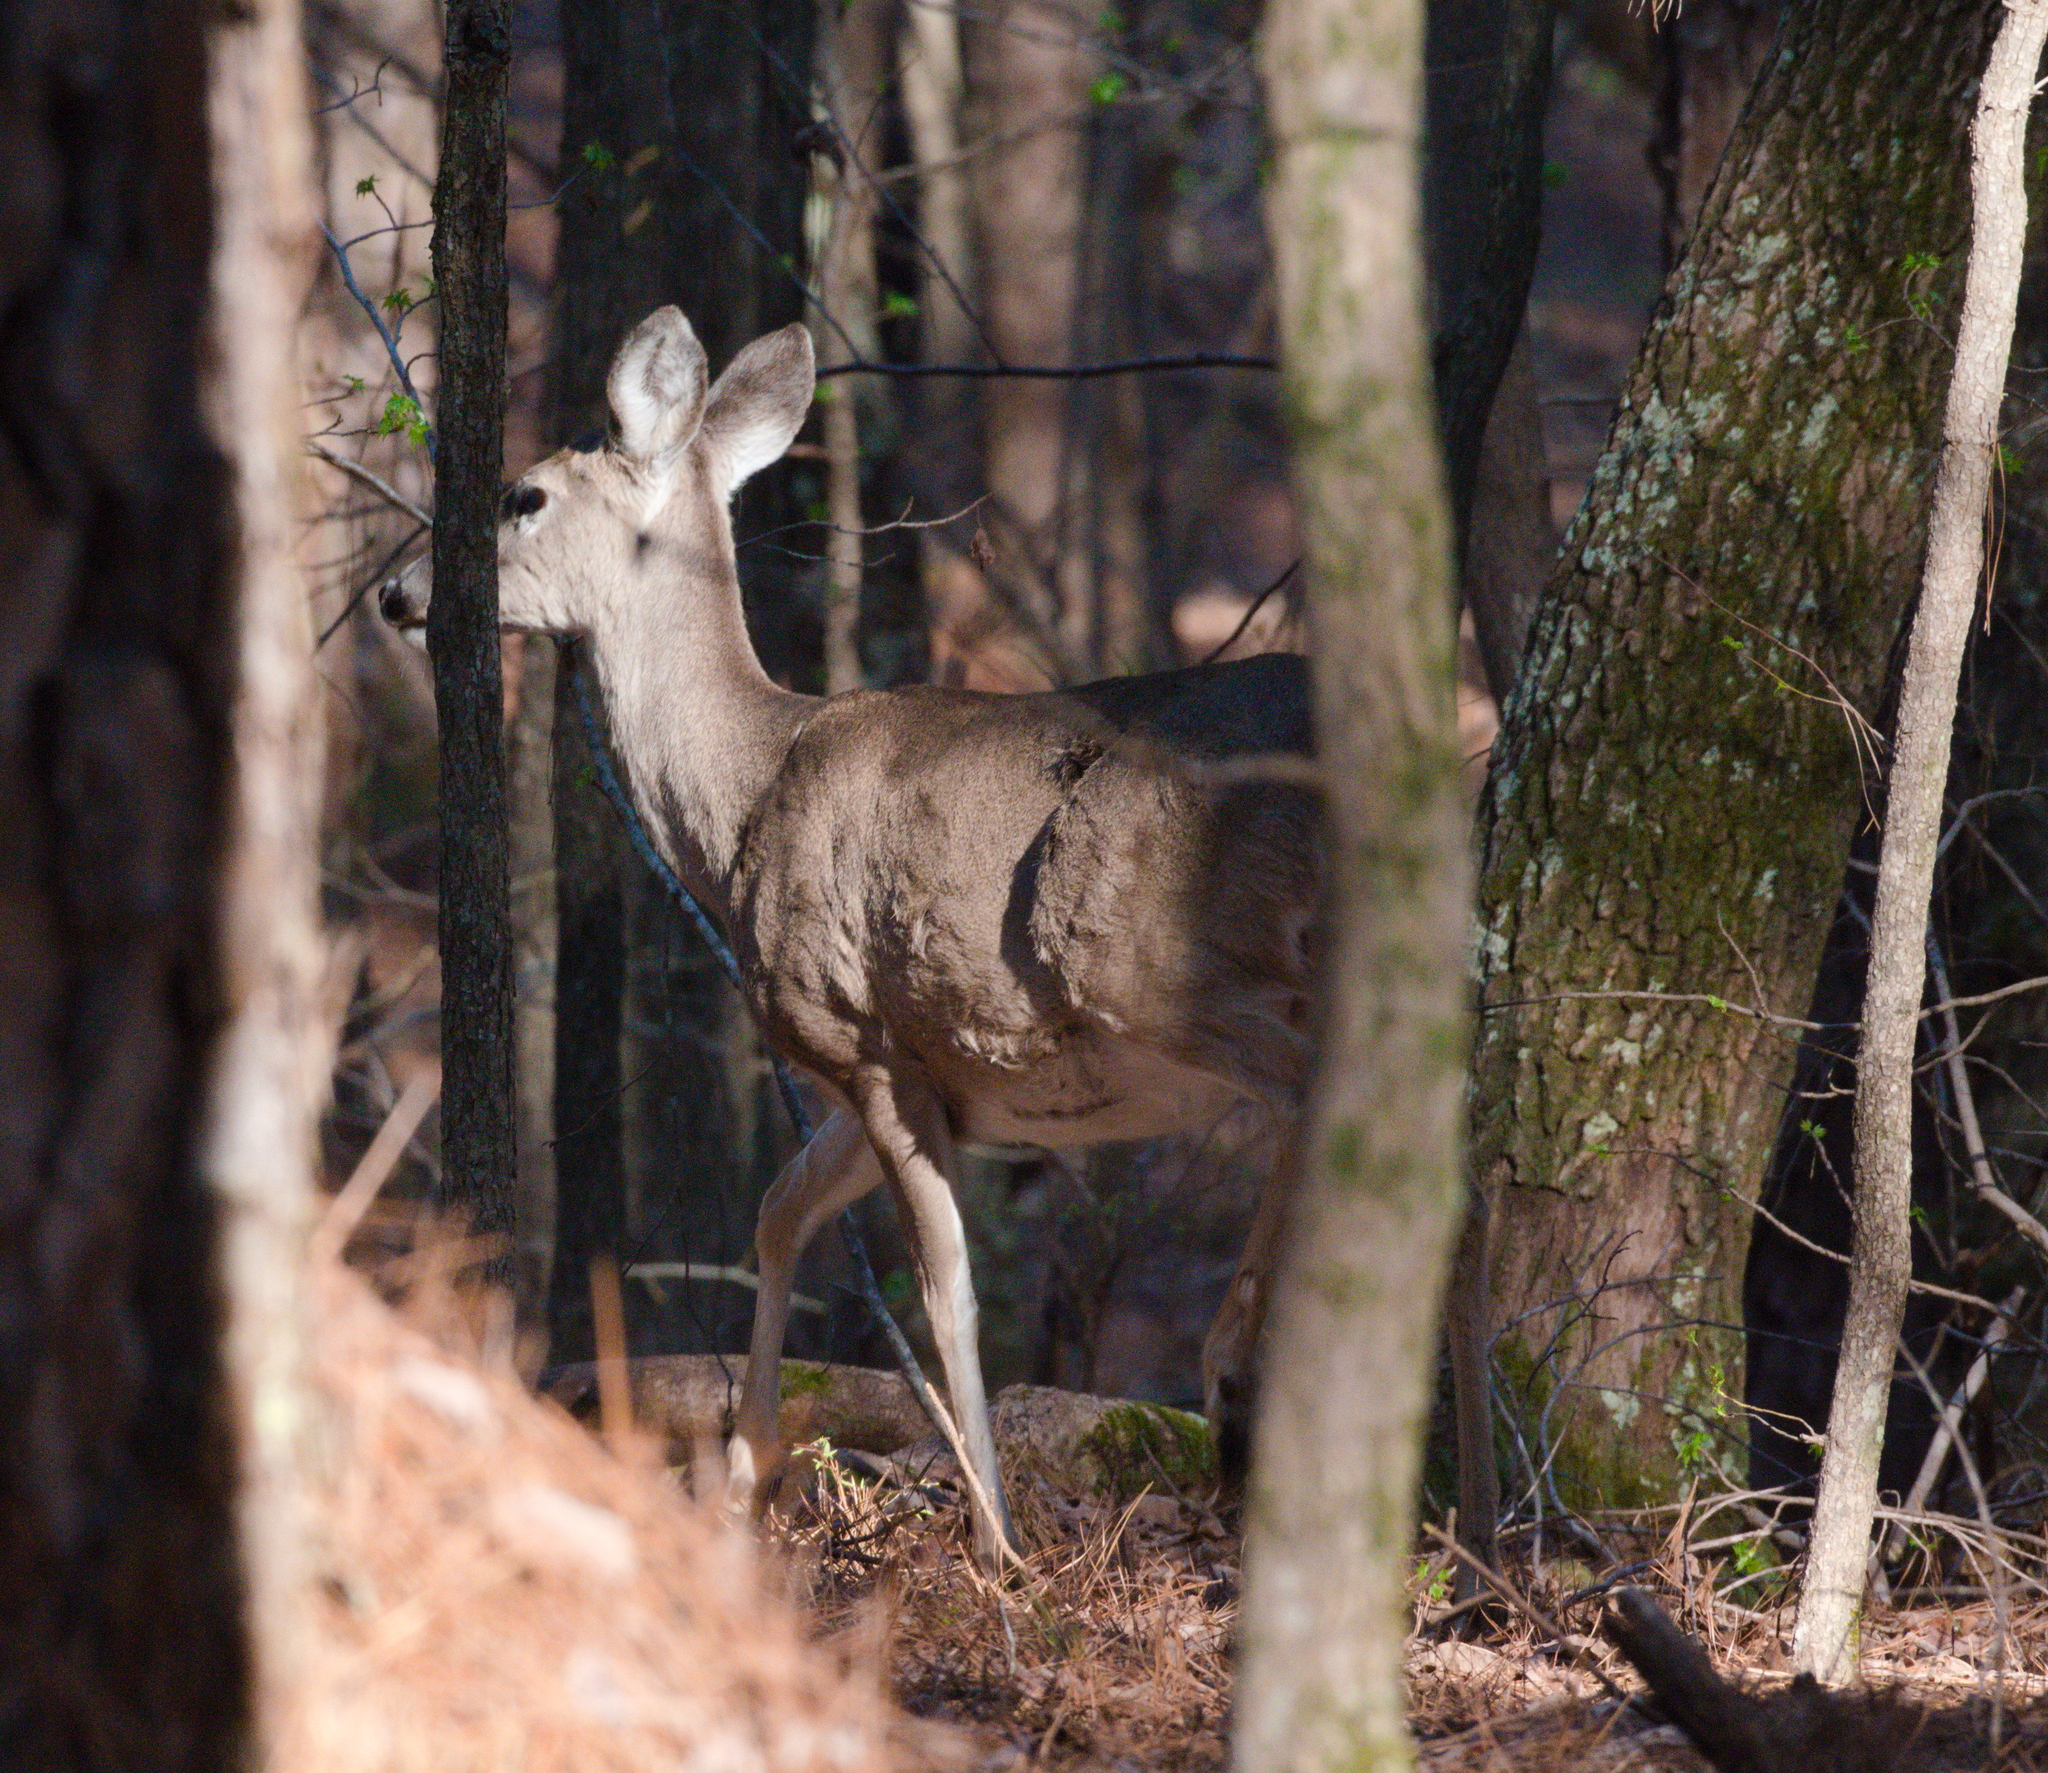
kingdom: Animalia
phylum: Chordata
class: Mammalia
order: Artiodactyla
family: Cervidae
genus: Odocoileus
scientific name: Odocoileus virginianus
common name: White-tailed deer
